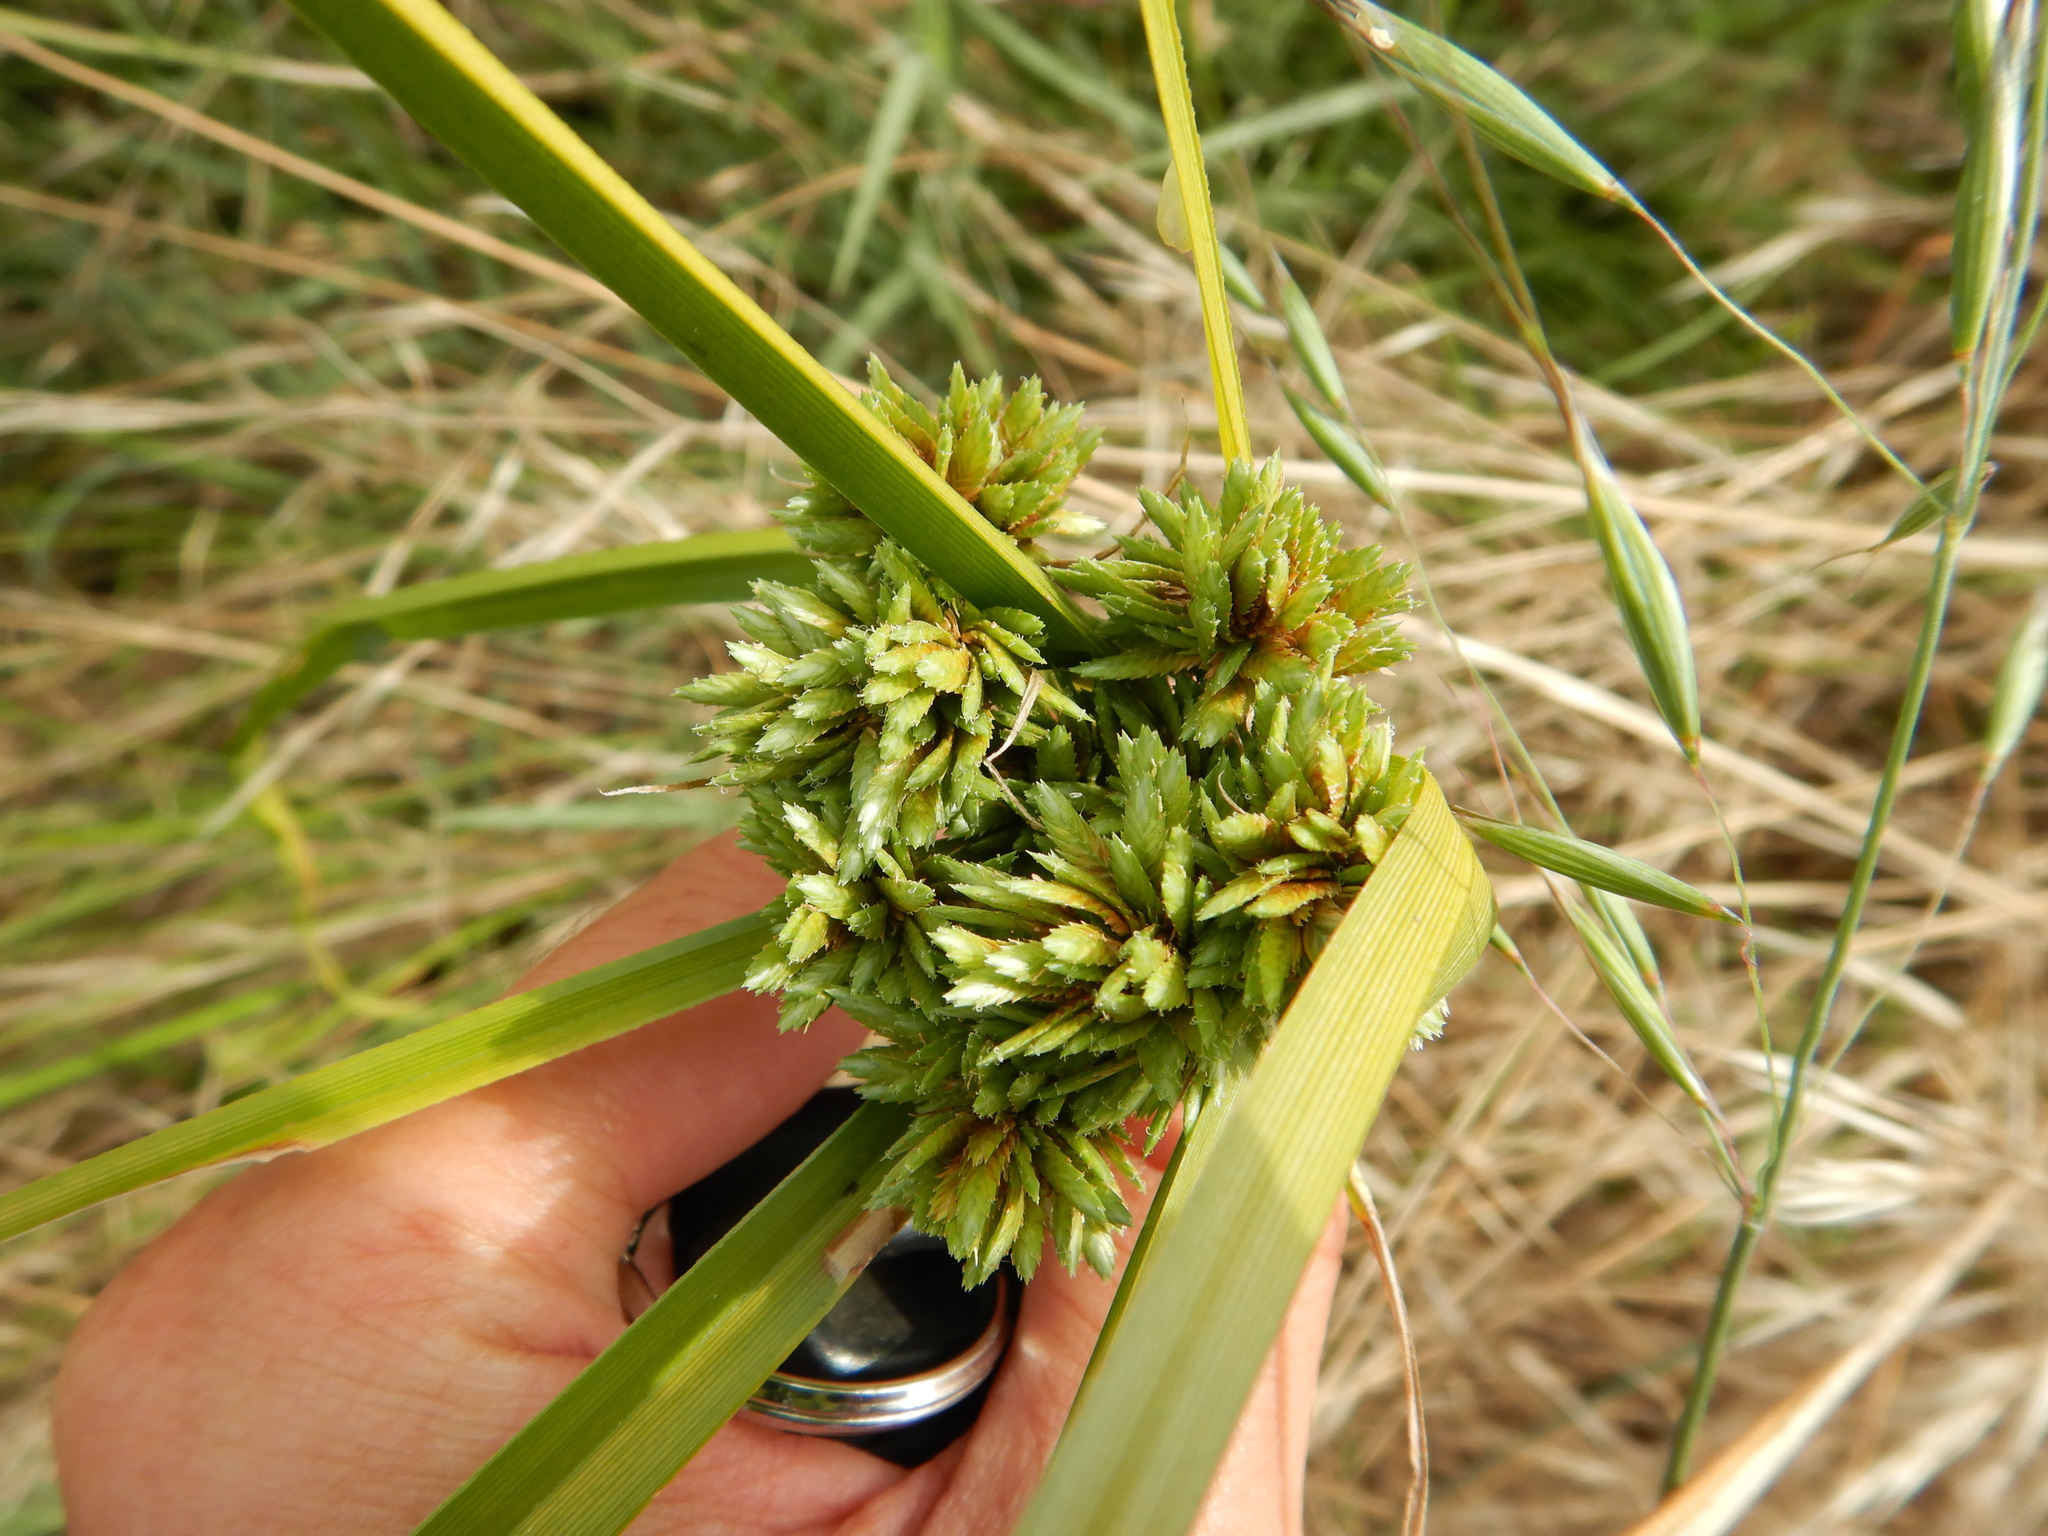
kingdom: Plantae
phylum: Tracheophyta
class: Liliopsida
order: Poales
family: Cyperaceae
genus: Cyperus
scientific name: Cyperus eragrostis
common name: Tall flatsedge
